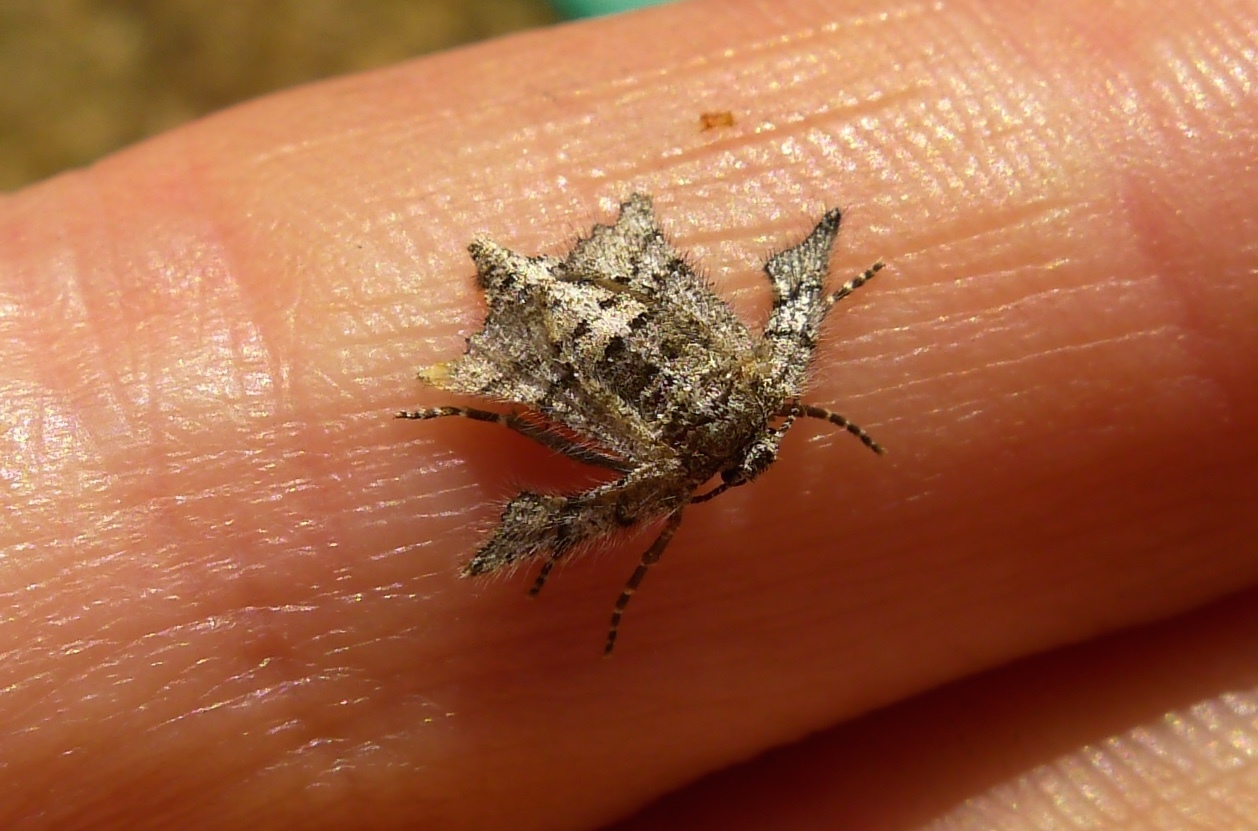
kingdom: Animalia
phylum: Arthropoda
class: Insecta
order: Lepidoptera
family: Geometridae
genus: Zermizinga
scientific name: Zermizinga indocilisaria
